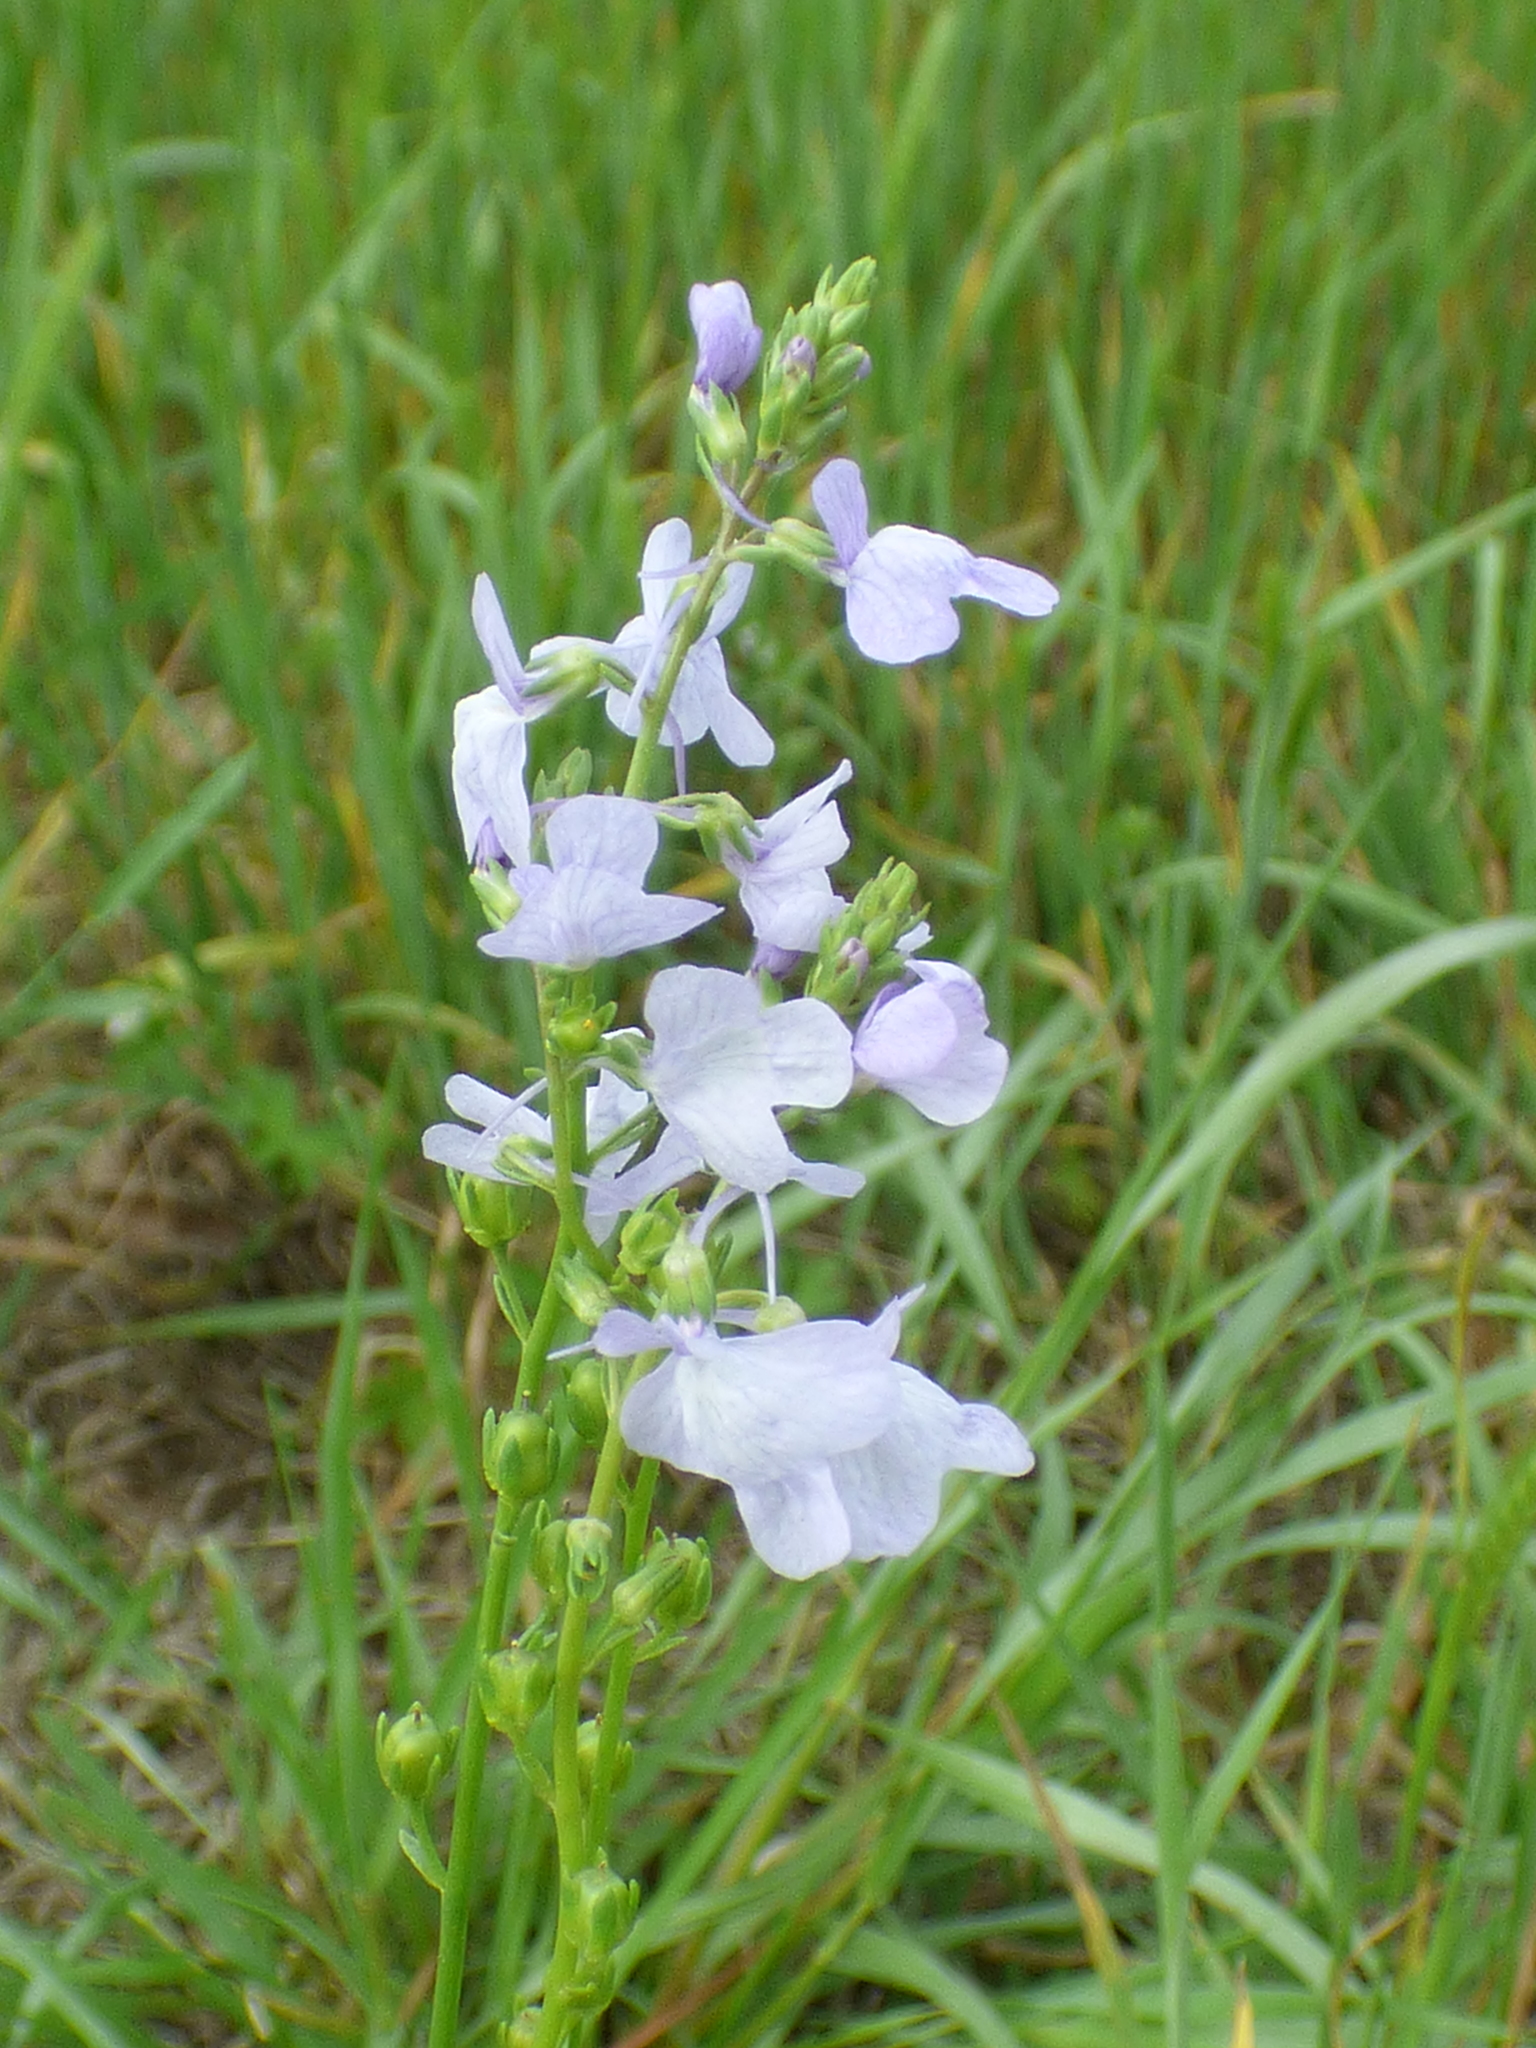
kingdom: Plantae
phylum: Tracheophyta
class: Magnoliopsida
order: Lamiales
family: Plantaginaceae
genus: Nuttallanthus
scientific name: Nuttallanthus texanus
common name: Texas toadflax
